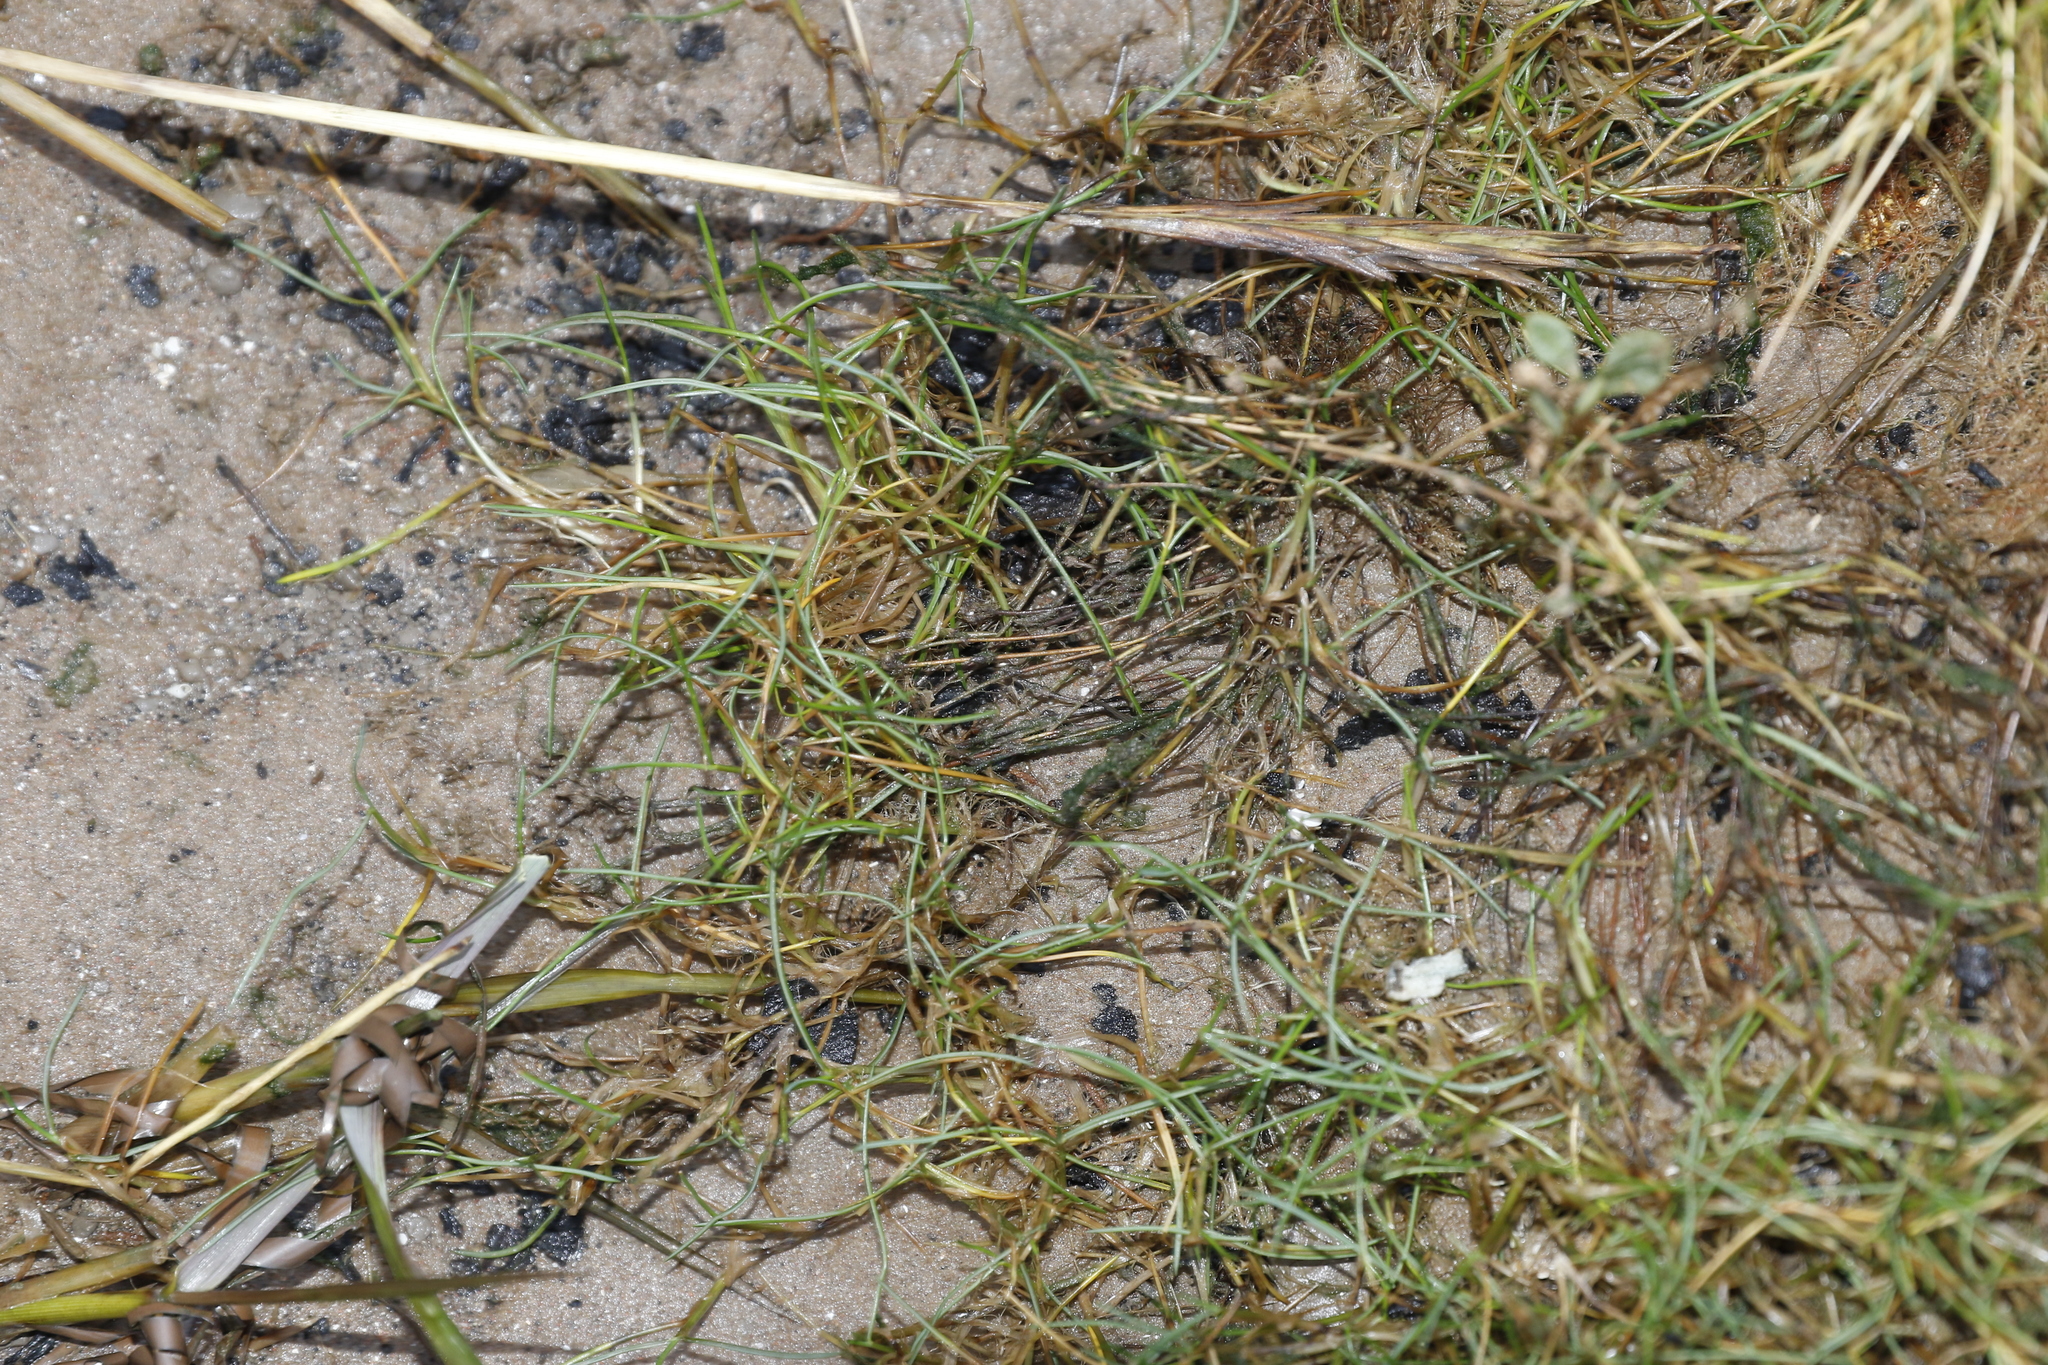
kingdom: Plantae
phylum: Tracheophyta
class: Liliopsida
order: Poales
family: Poaceae
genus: Puccinellia
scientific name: Puccinellia maritima
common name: Common saltmarsh grass
